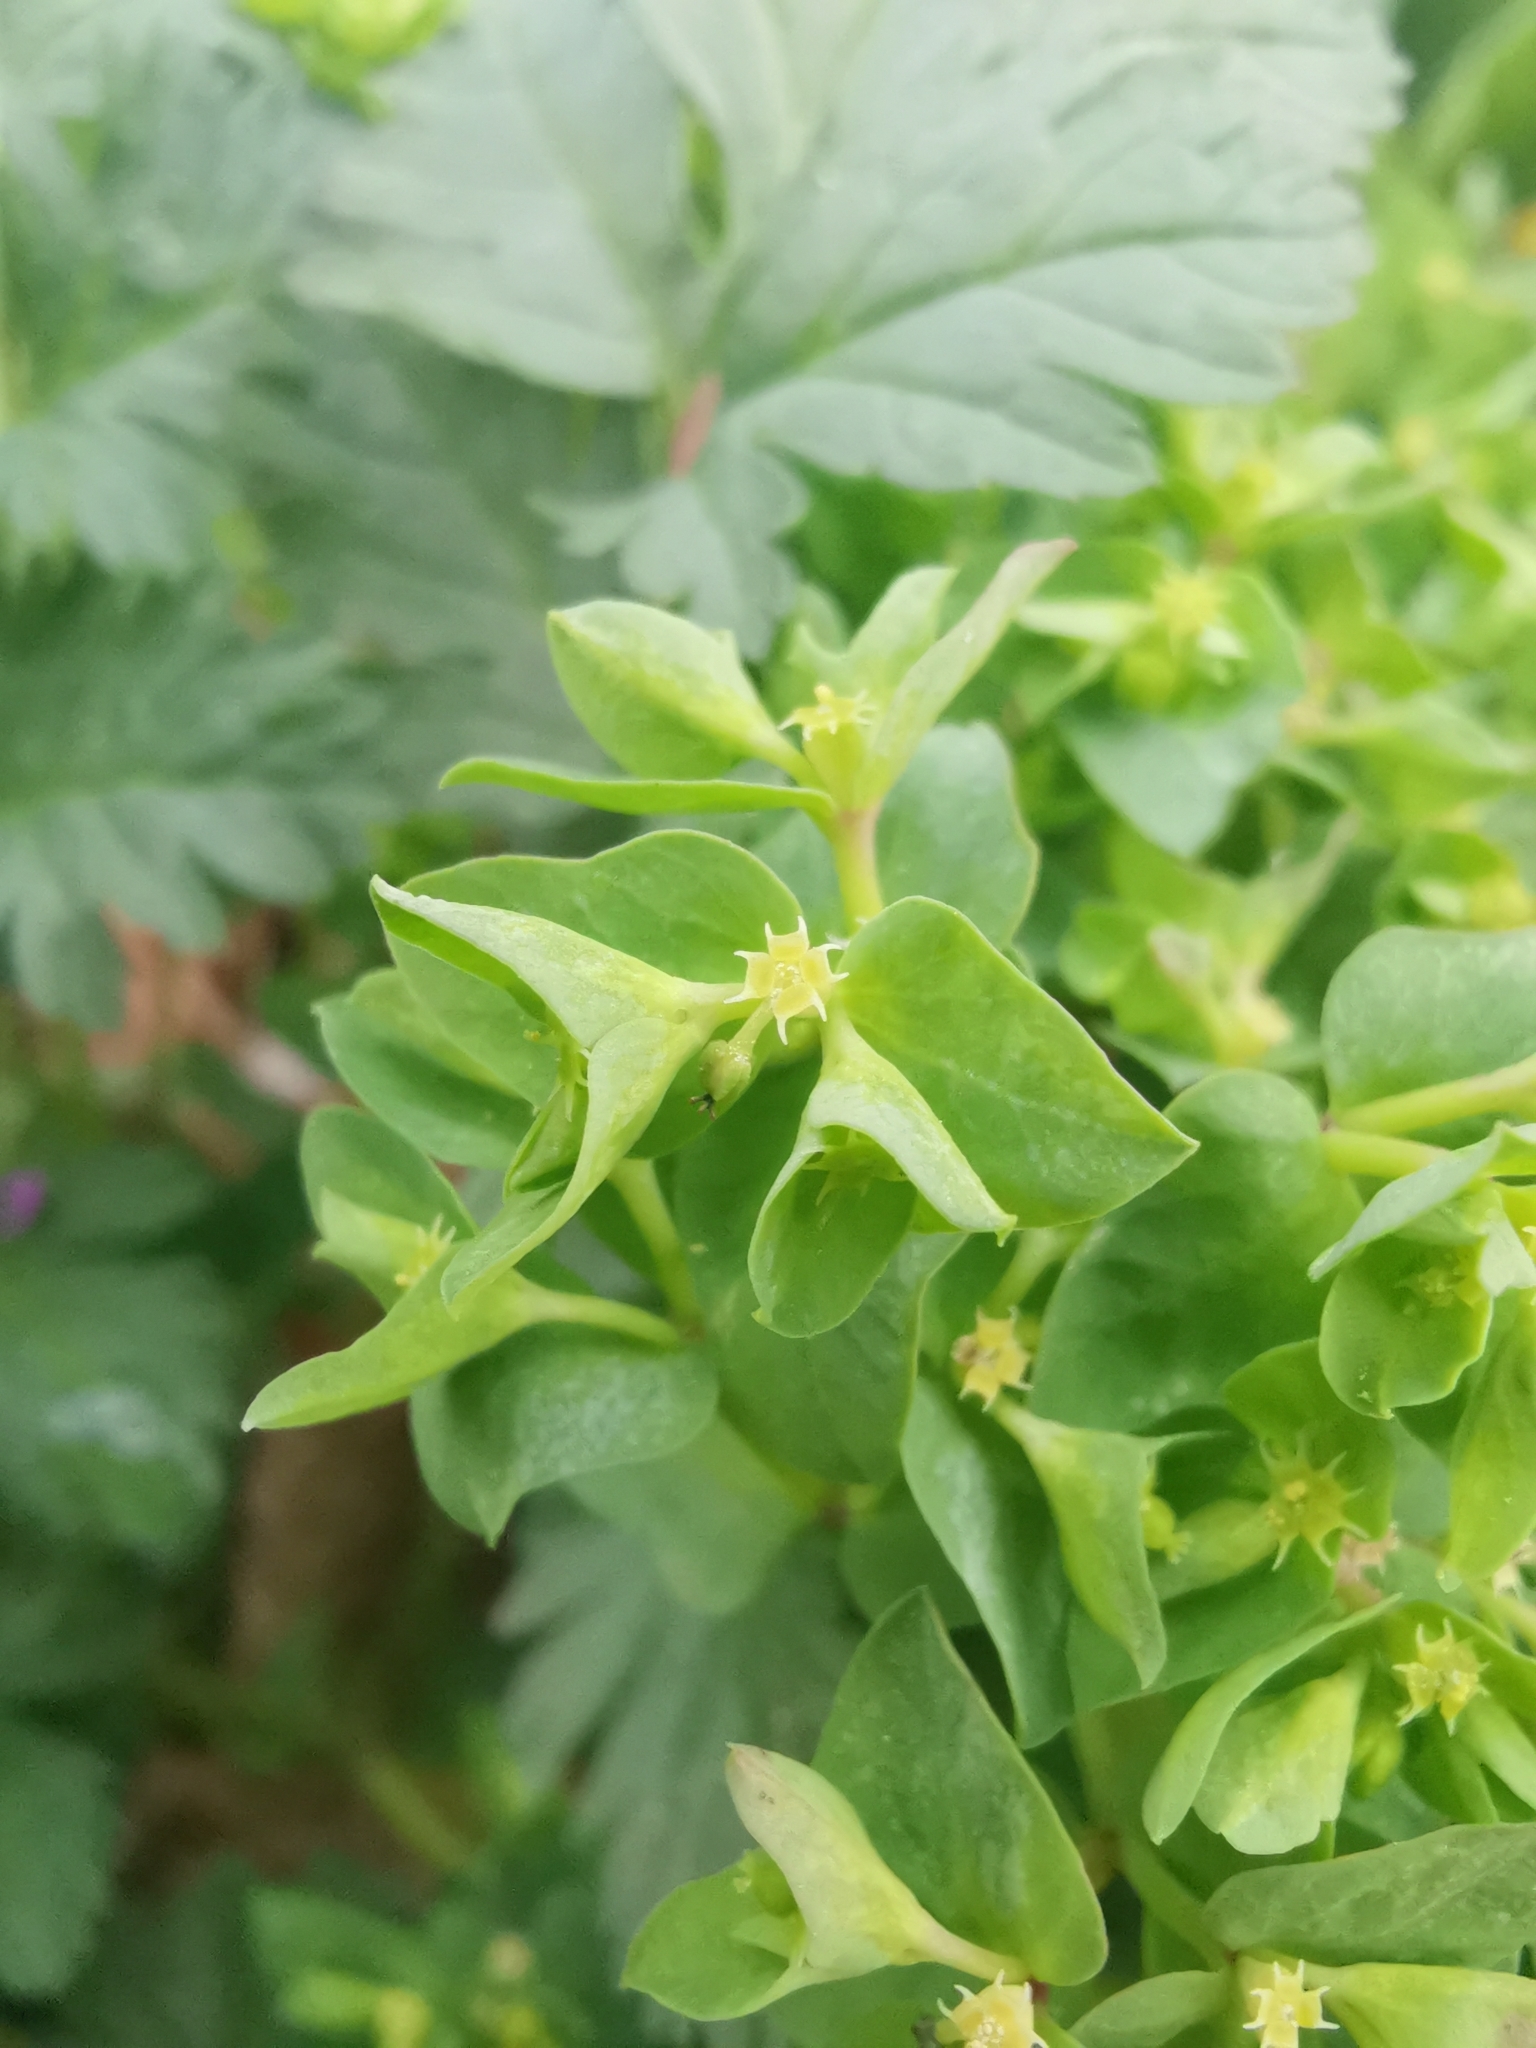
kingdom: Plantae
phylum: Tracheophyta
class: Magnoliopsida
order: Malpighiales
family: Euphorbiaceae
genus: Euphorbia
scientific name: Euphorbia peplus
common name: Petty spurge
